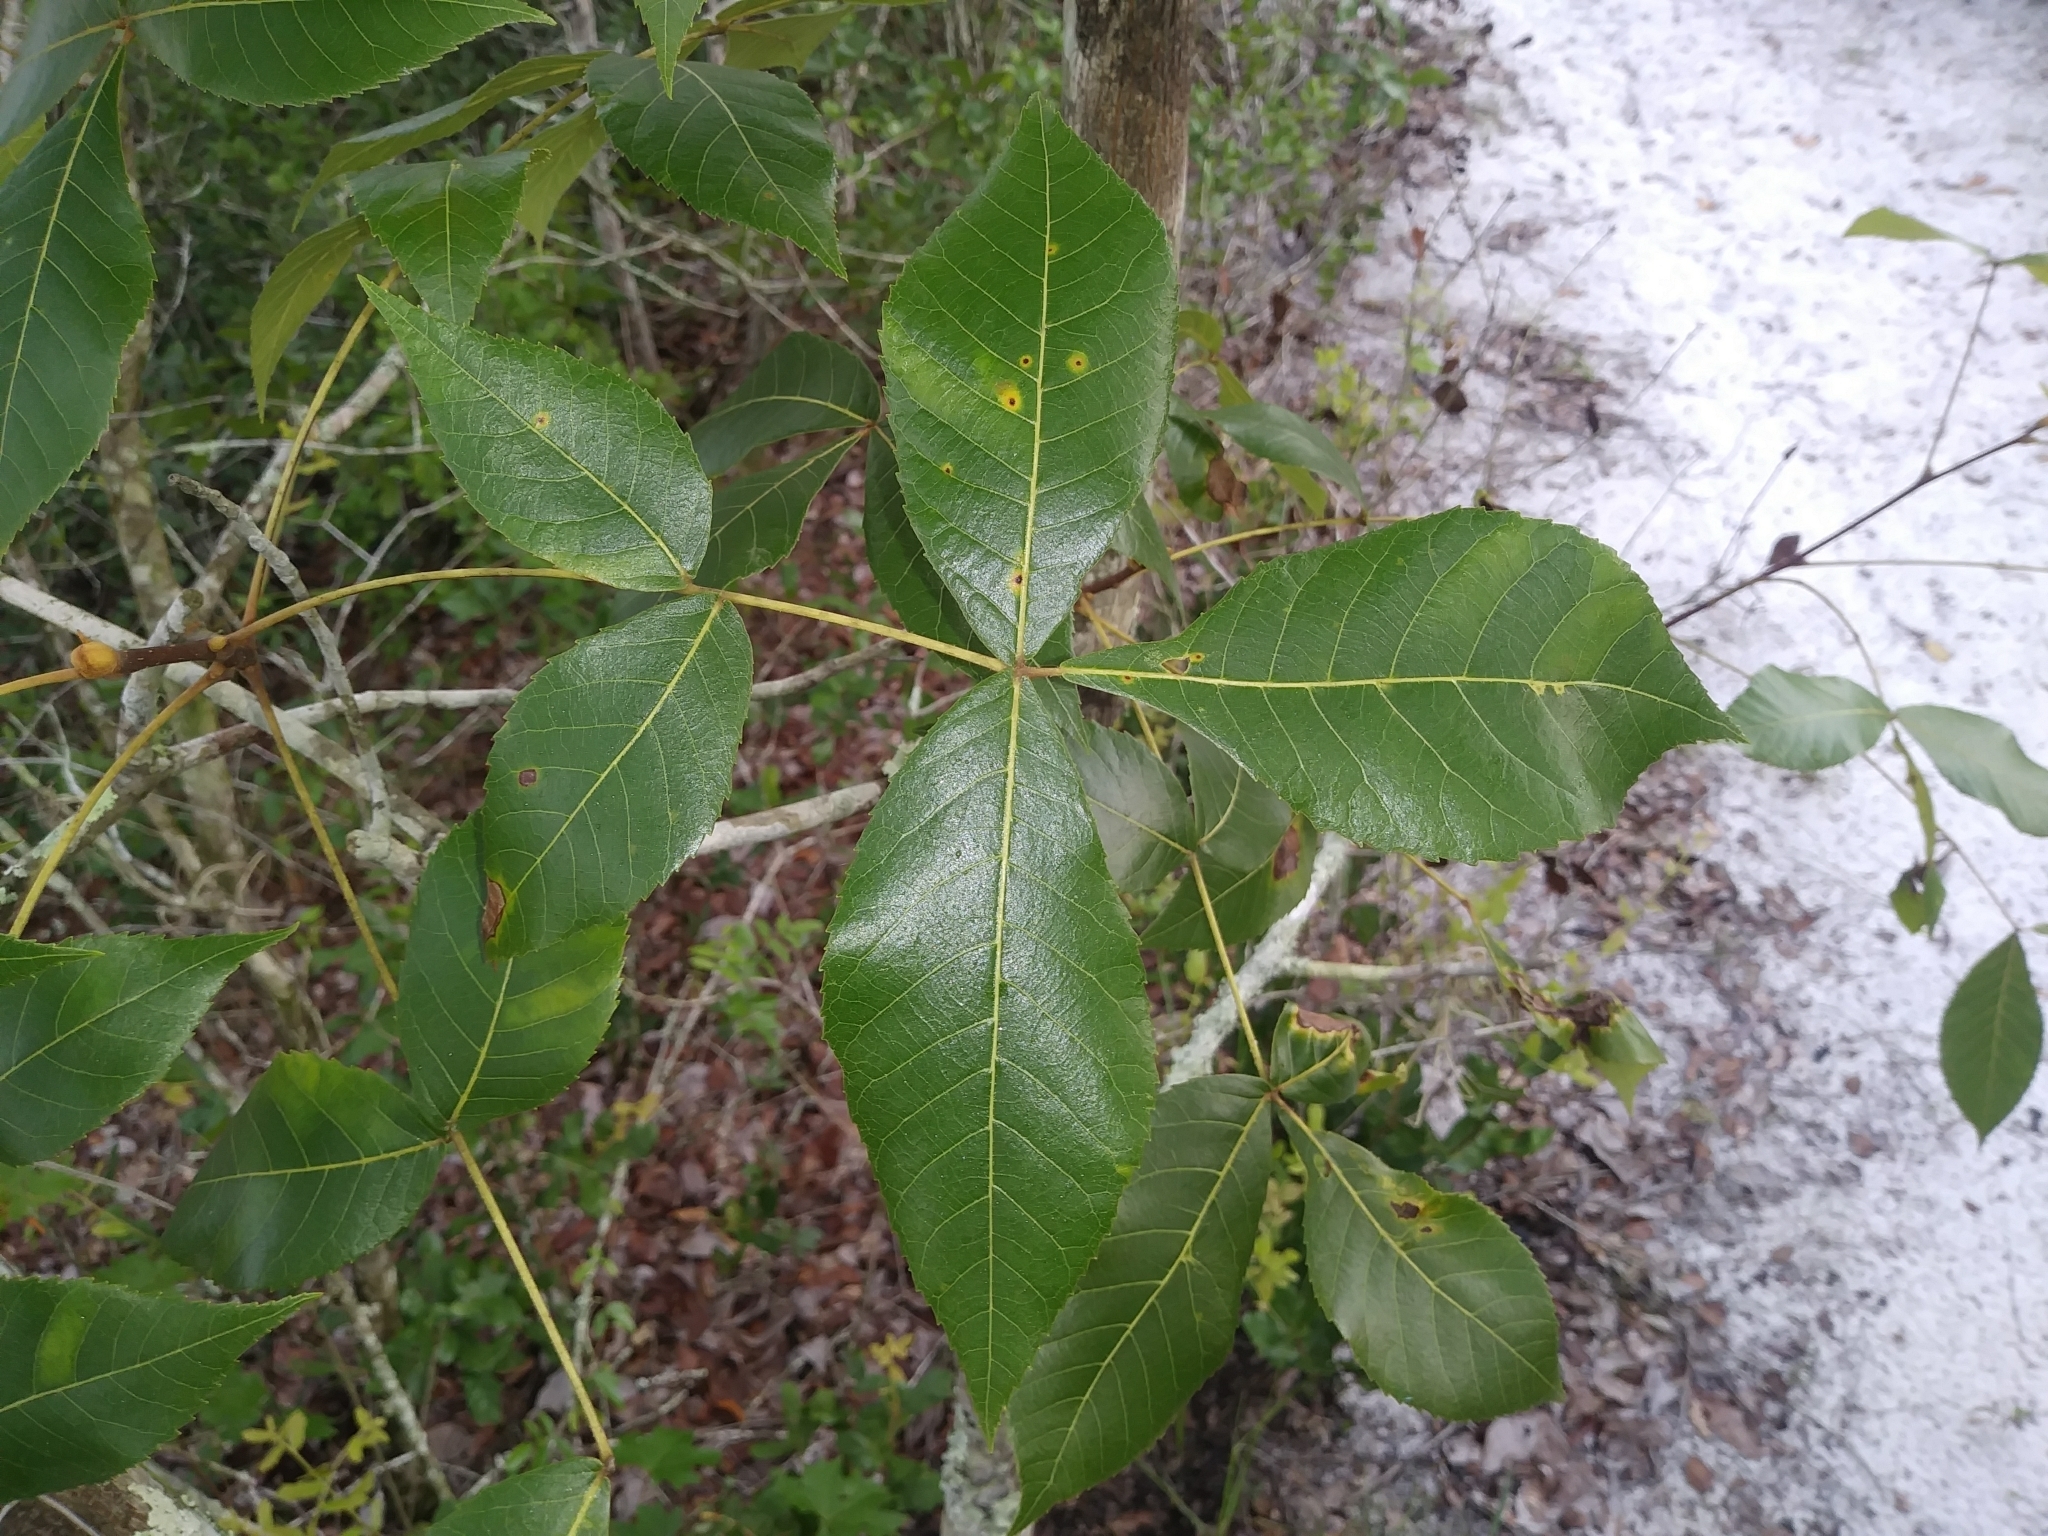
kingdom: Animalia
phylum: Arthropoda
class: Insecta
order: Diptera
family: Cecidomyiidae
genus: Caryomyia
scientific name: Caryomyia guttata
